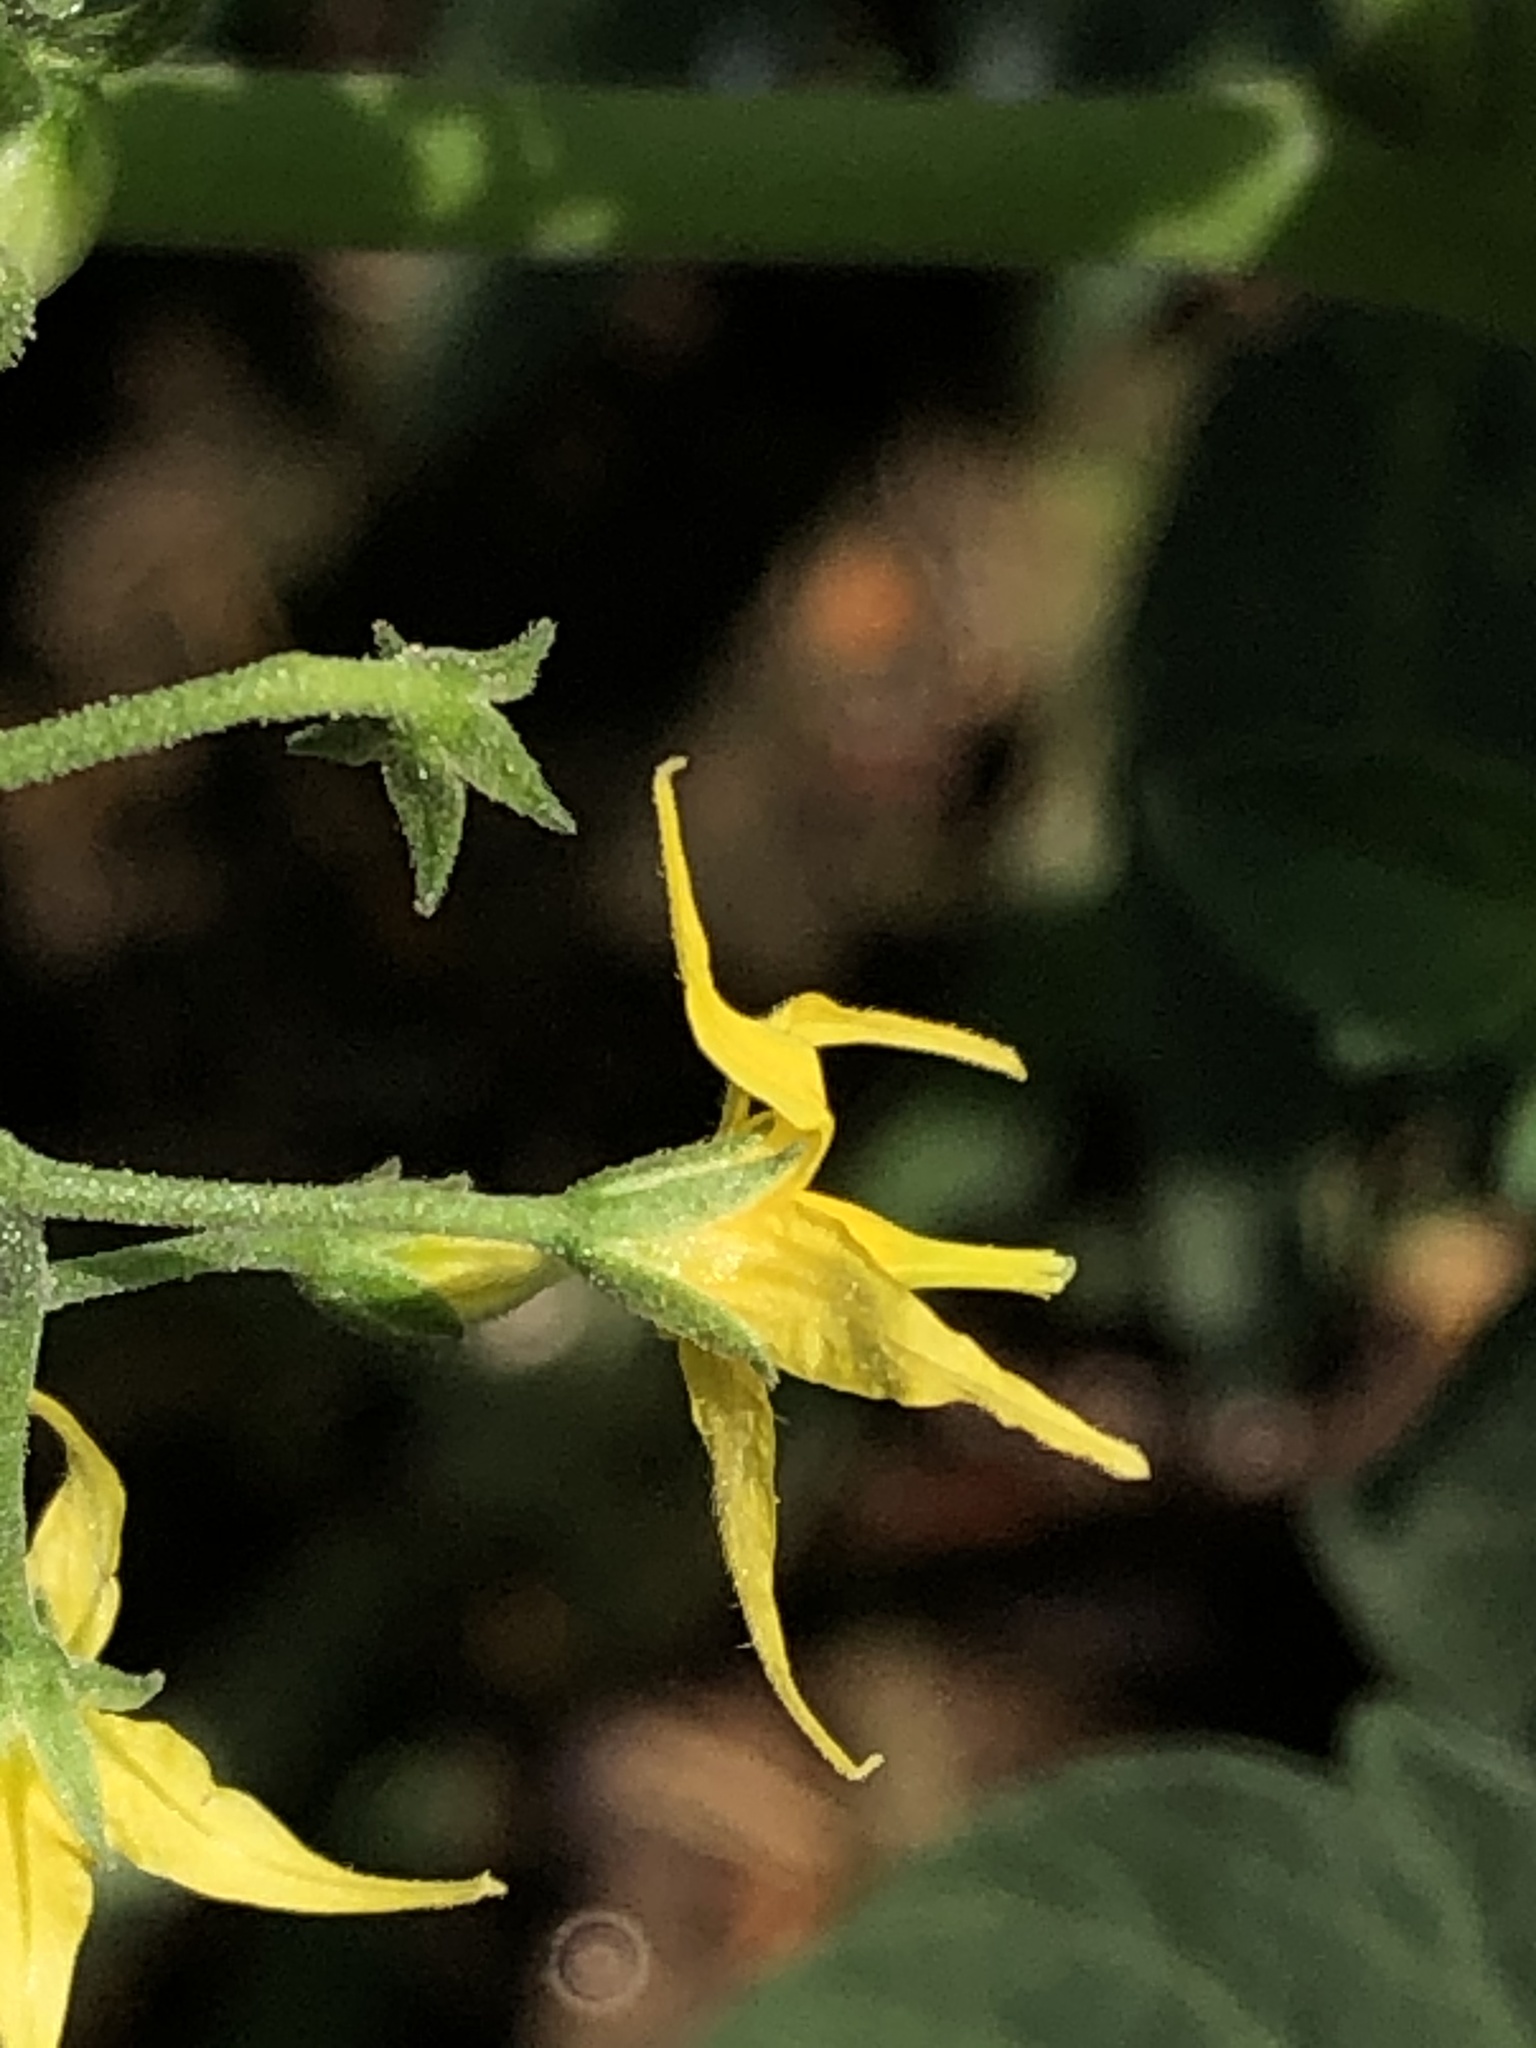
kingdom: Plantae
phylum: Tracheophyta
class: Magnoliopsida
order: Solanales
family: Solanaceae
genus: Solanum
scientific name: Solanum lycopersicum
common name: Garden tomato
